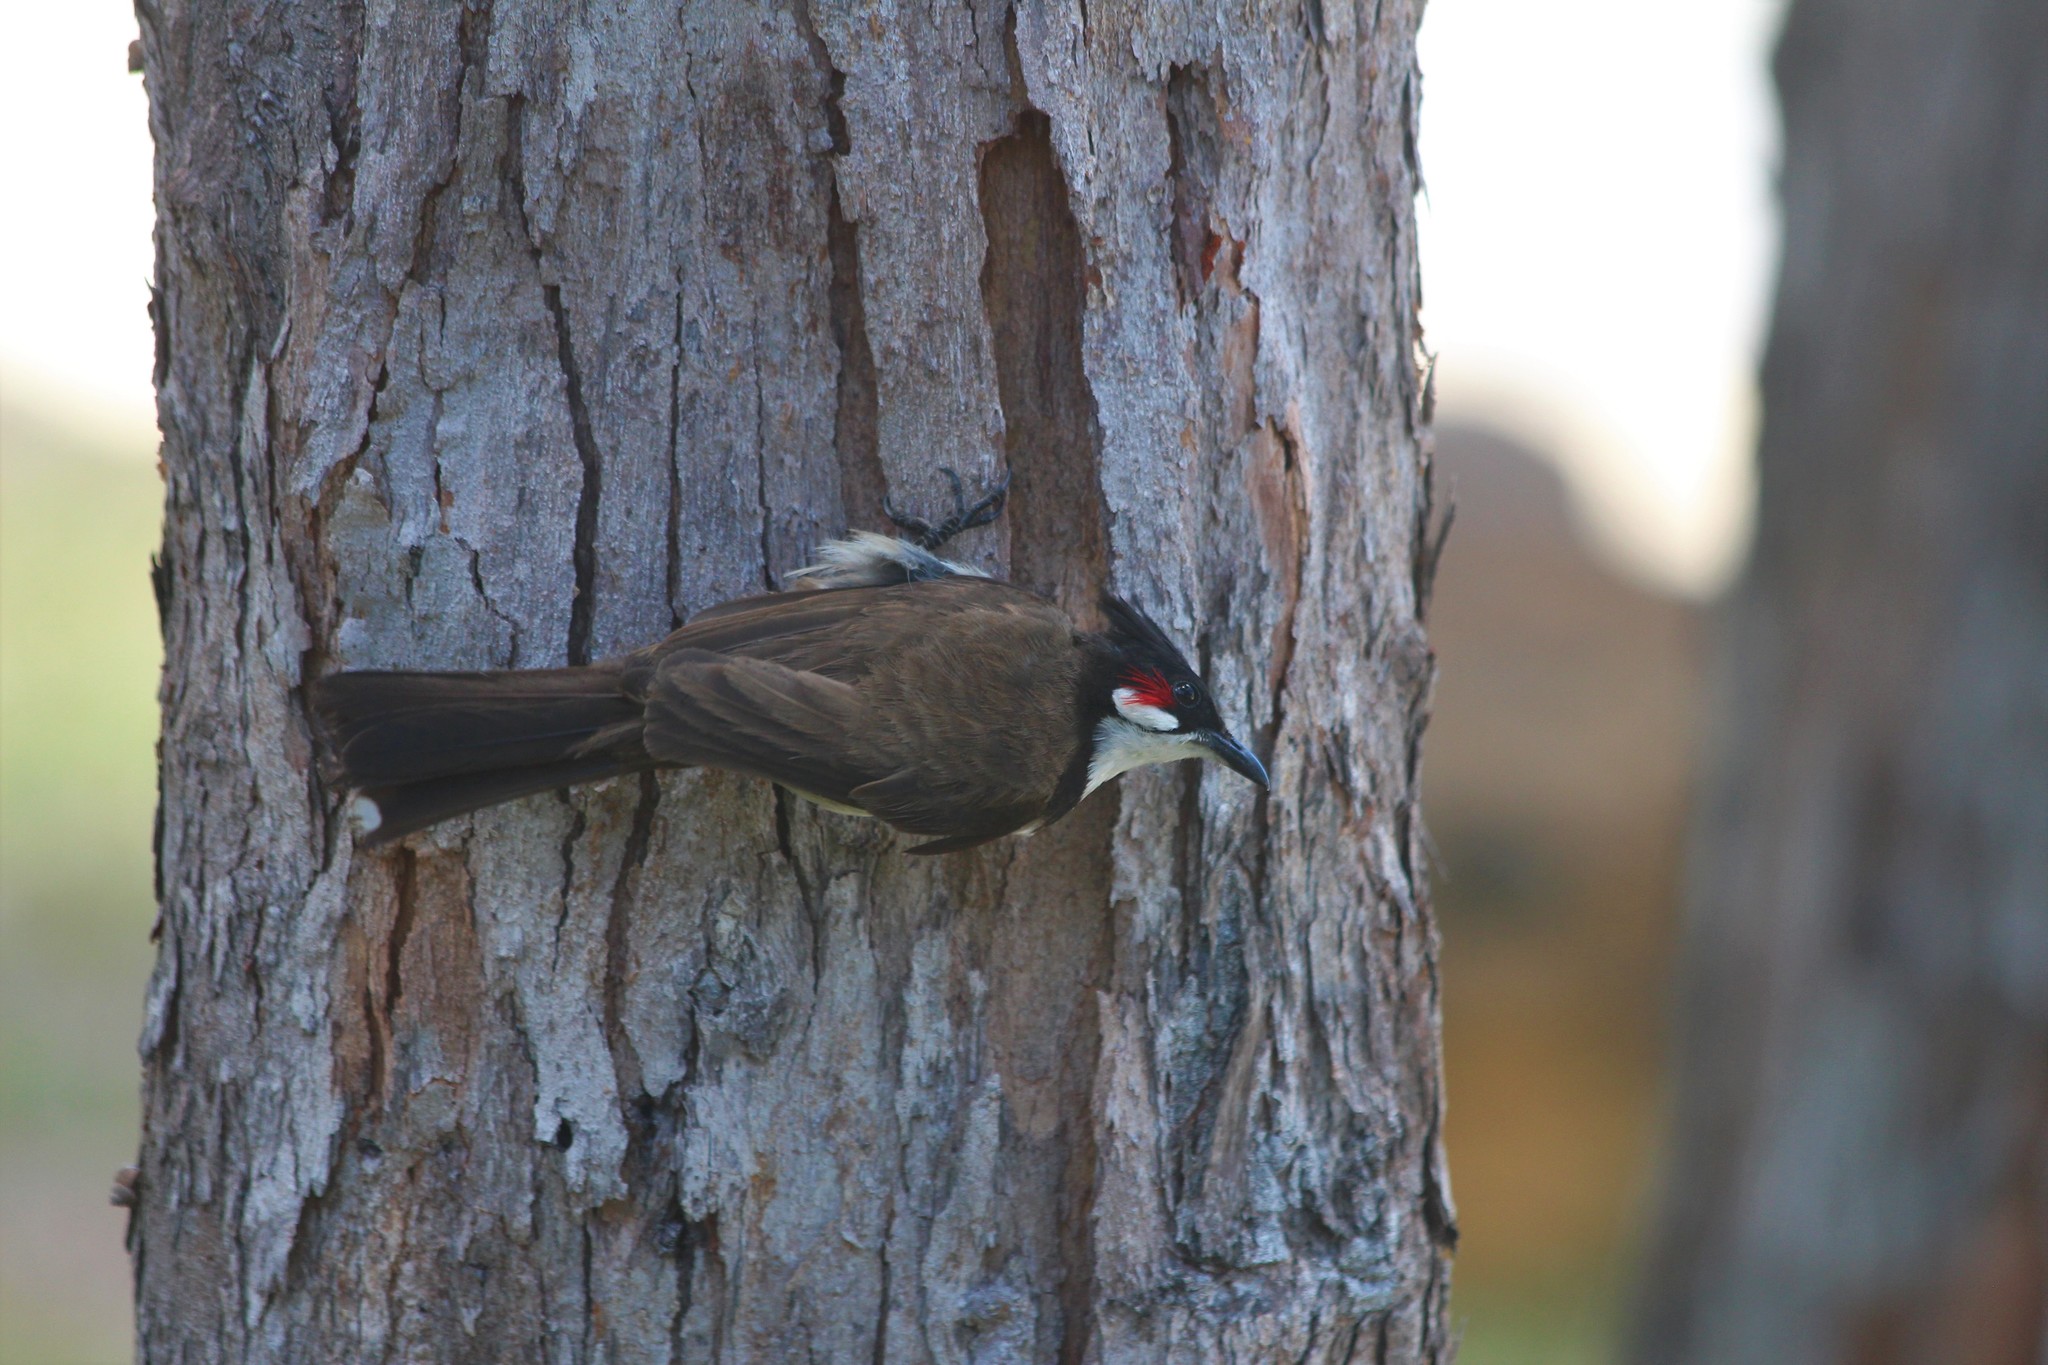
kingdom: Animalia
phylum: Chordata
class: Aves
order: Passeriformes
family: Pycnonotidae
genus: Pycnonotus
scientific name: Pycnonotus jocosus
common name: Red-whiskered bulbul
